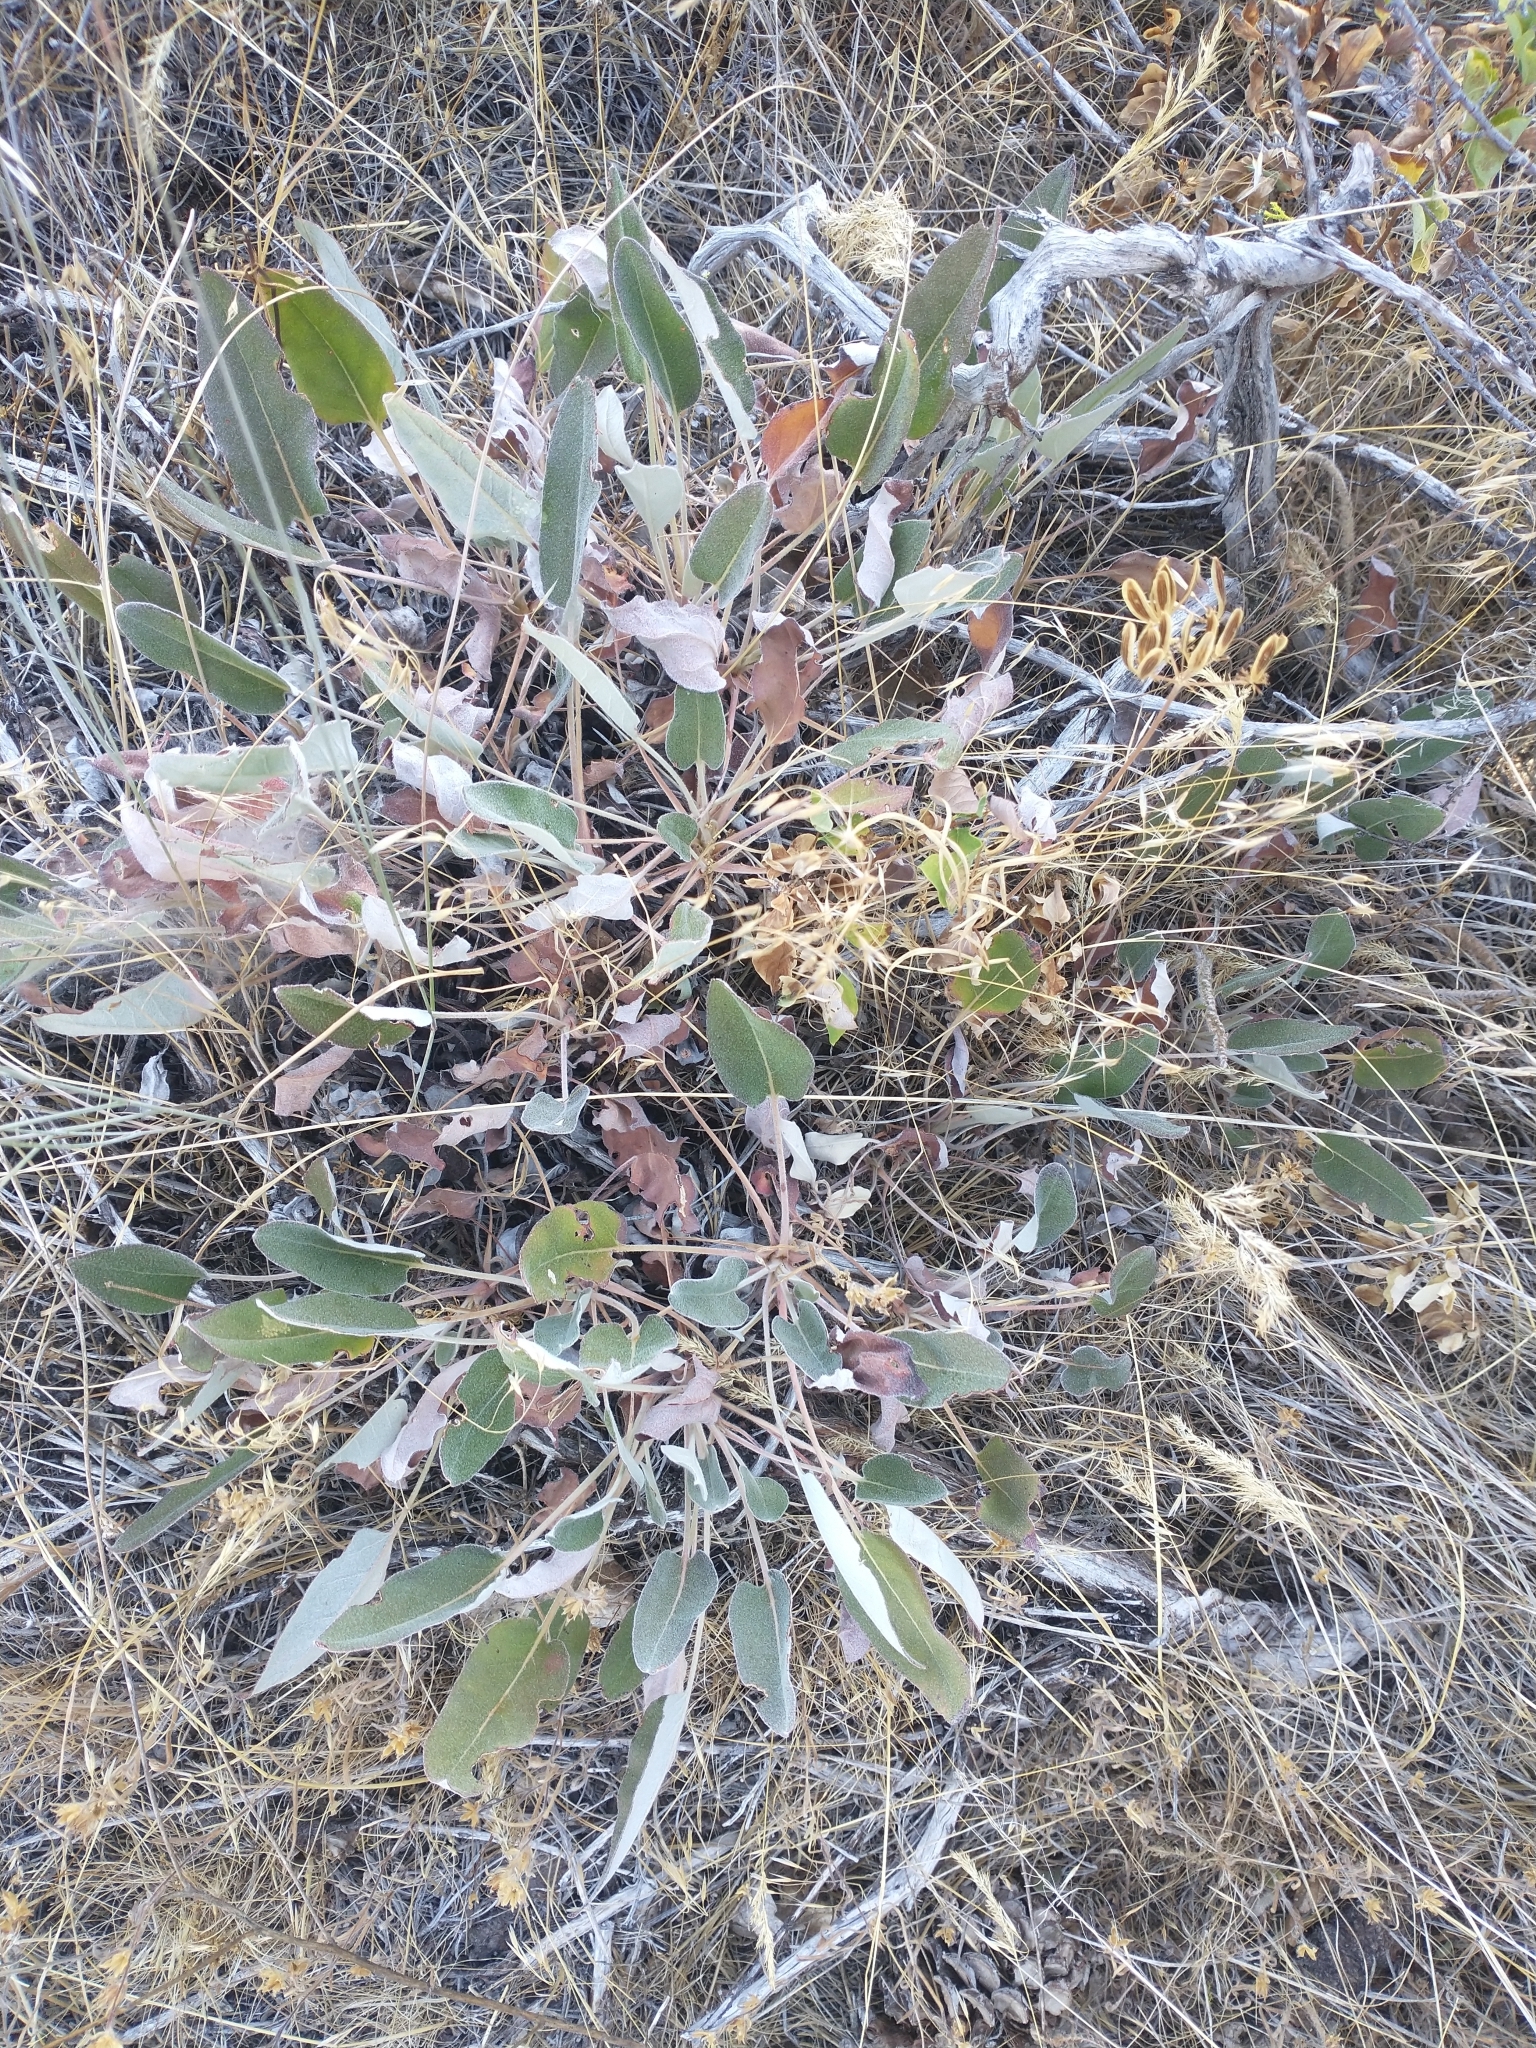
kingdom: Plantae
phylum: Tracheophyta
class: Magnoliopsida
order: Caryophyllales
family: Polygonaceae
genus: Eriogonum
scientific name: Eriogonum compositum
